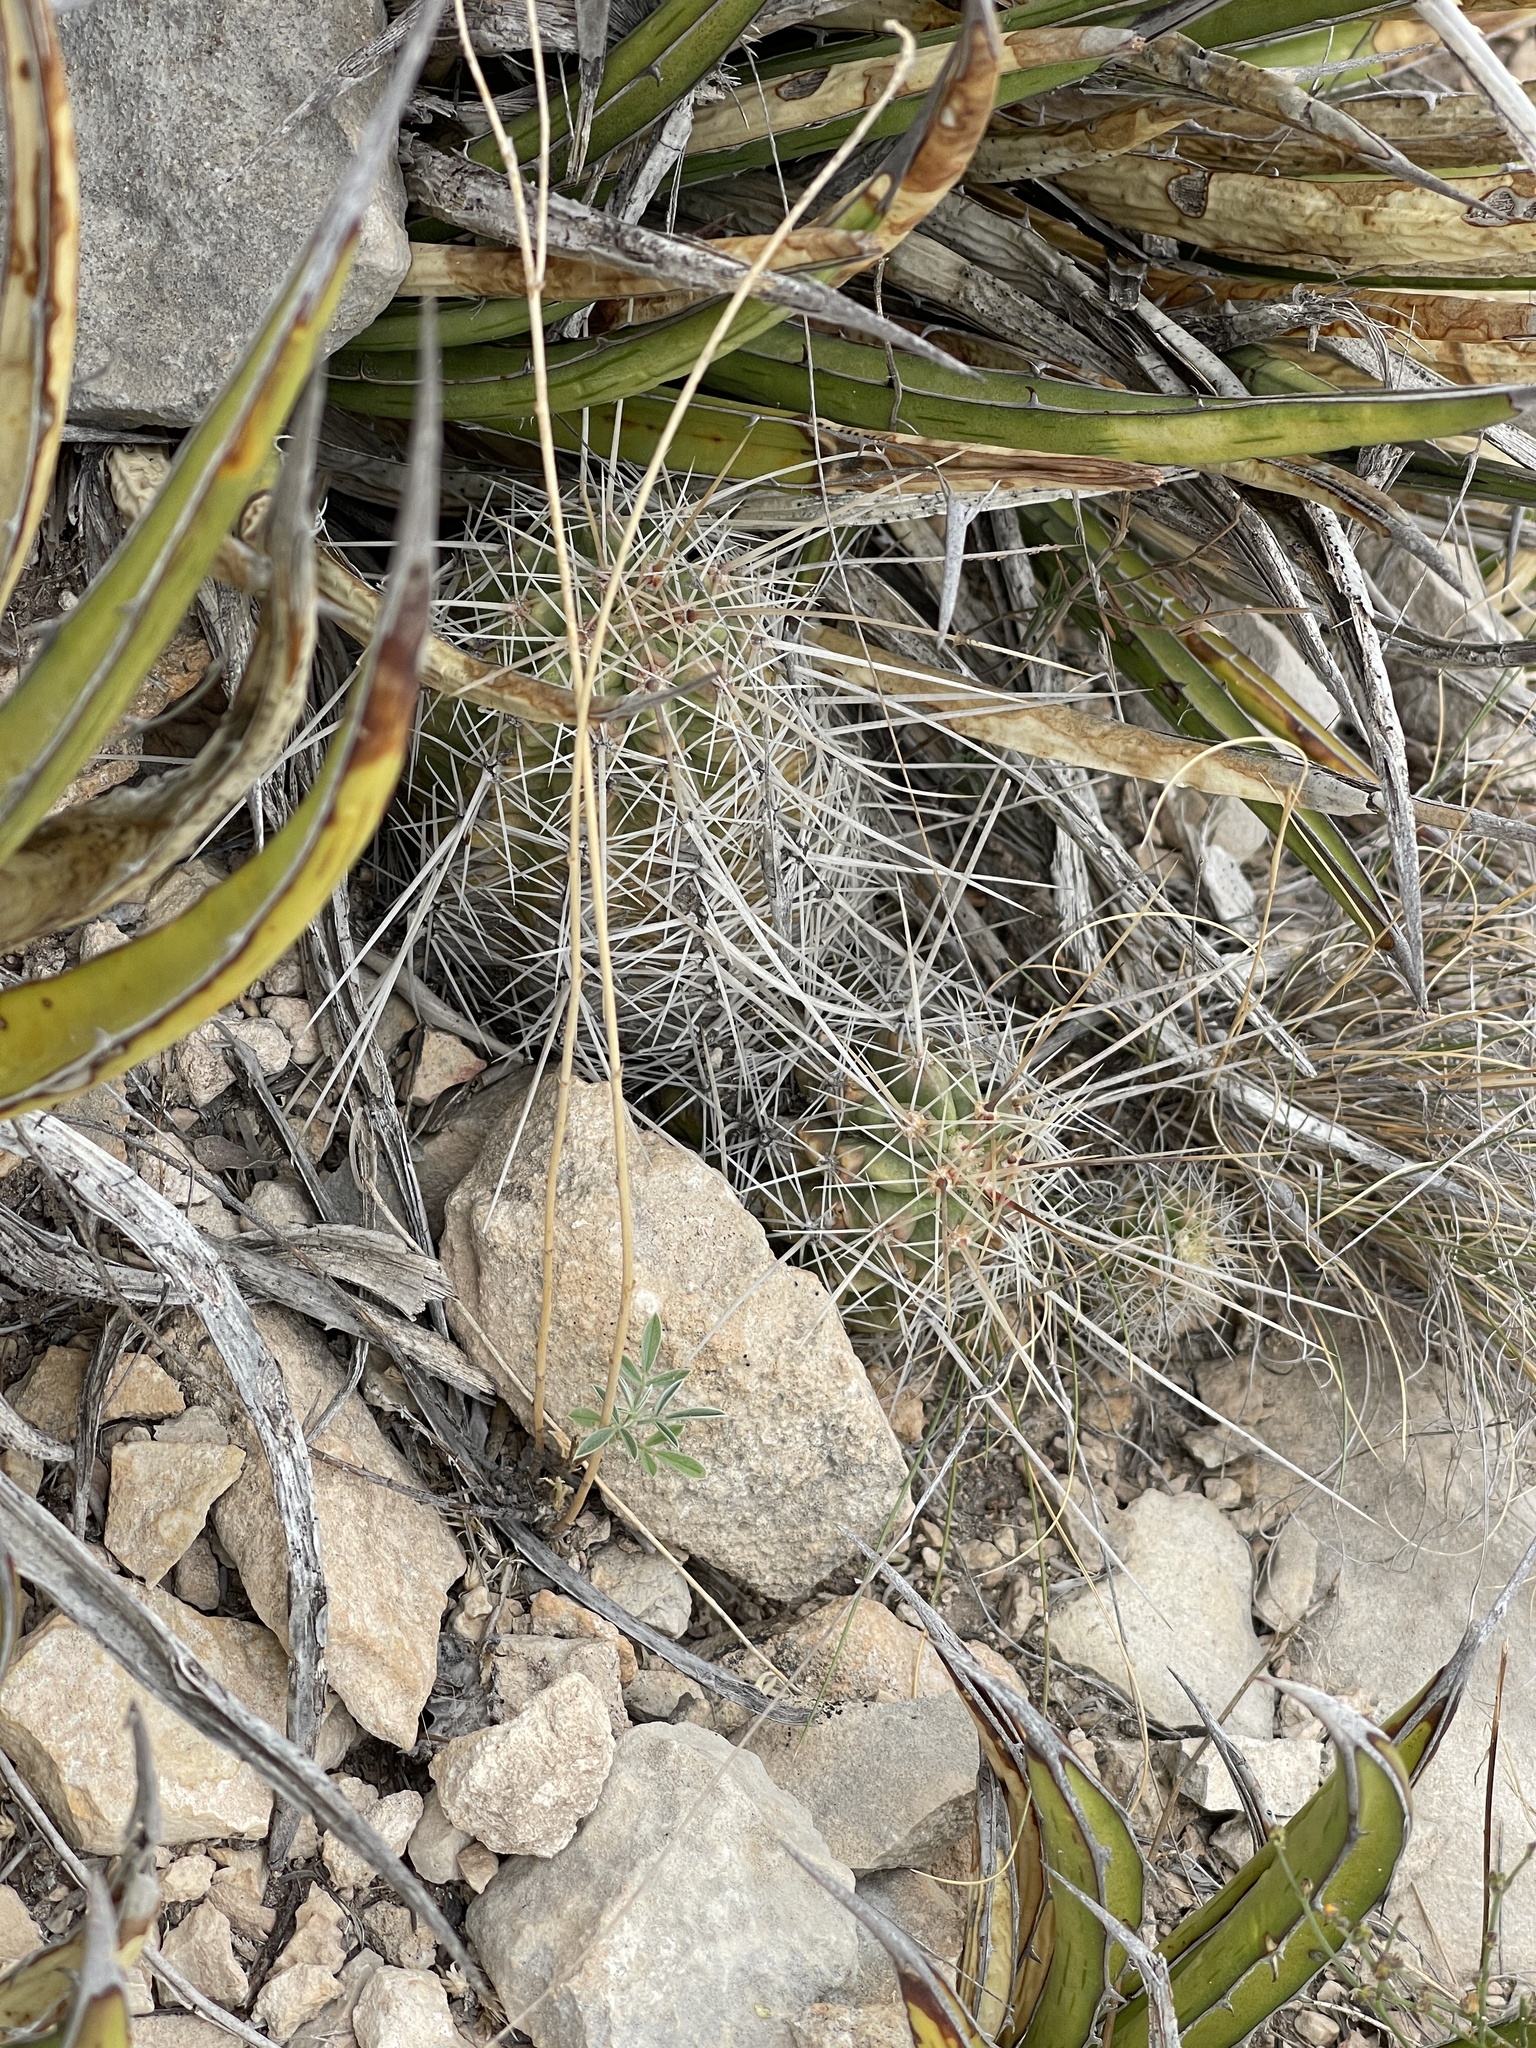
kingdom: Plantae
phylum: Tracheophyta
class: Magnoliopsida
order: Caryophyllales
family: Cactaceae
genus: Echinocereus
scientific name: Echinocereus stramineus
